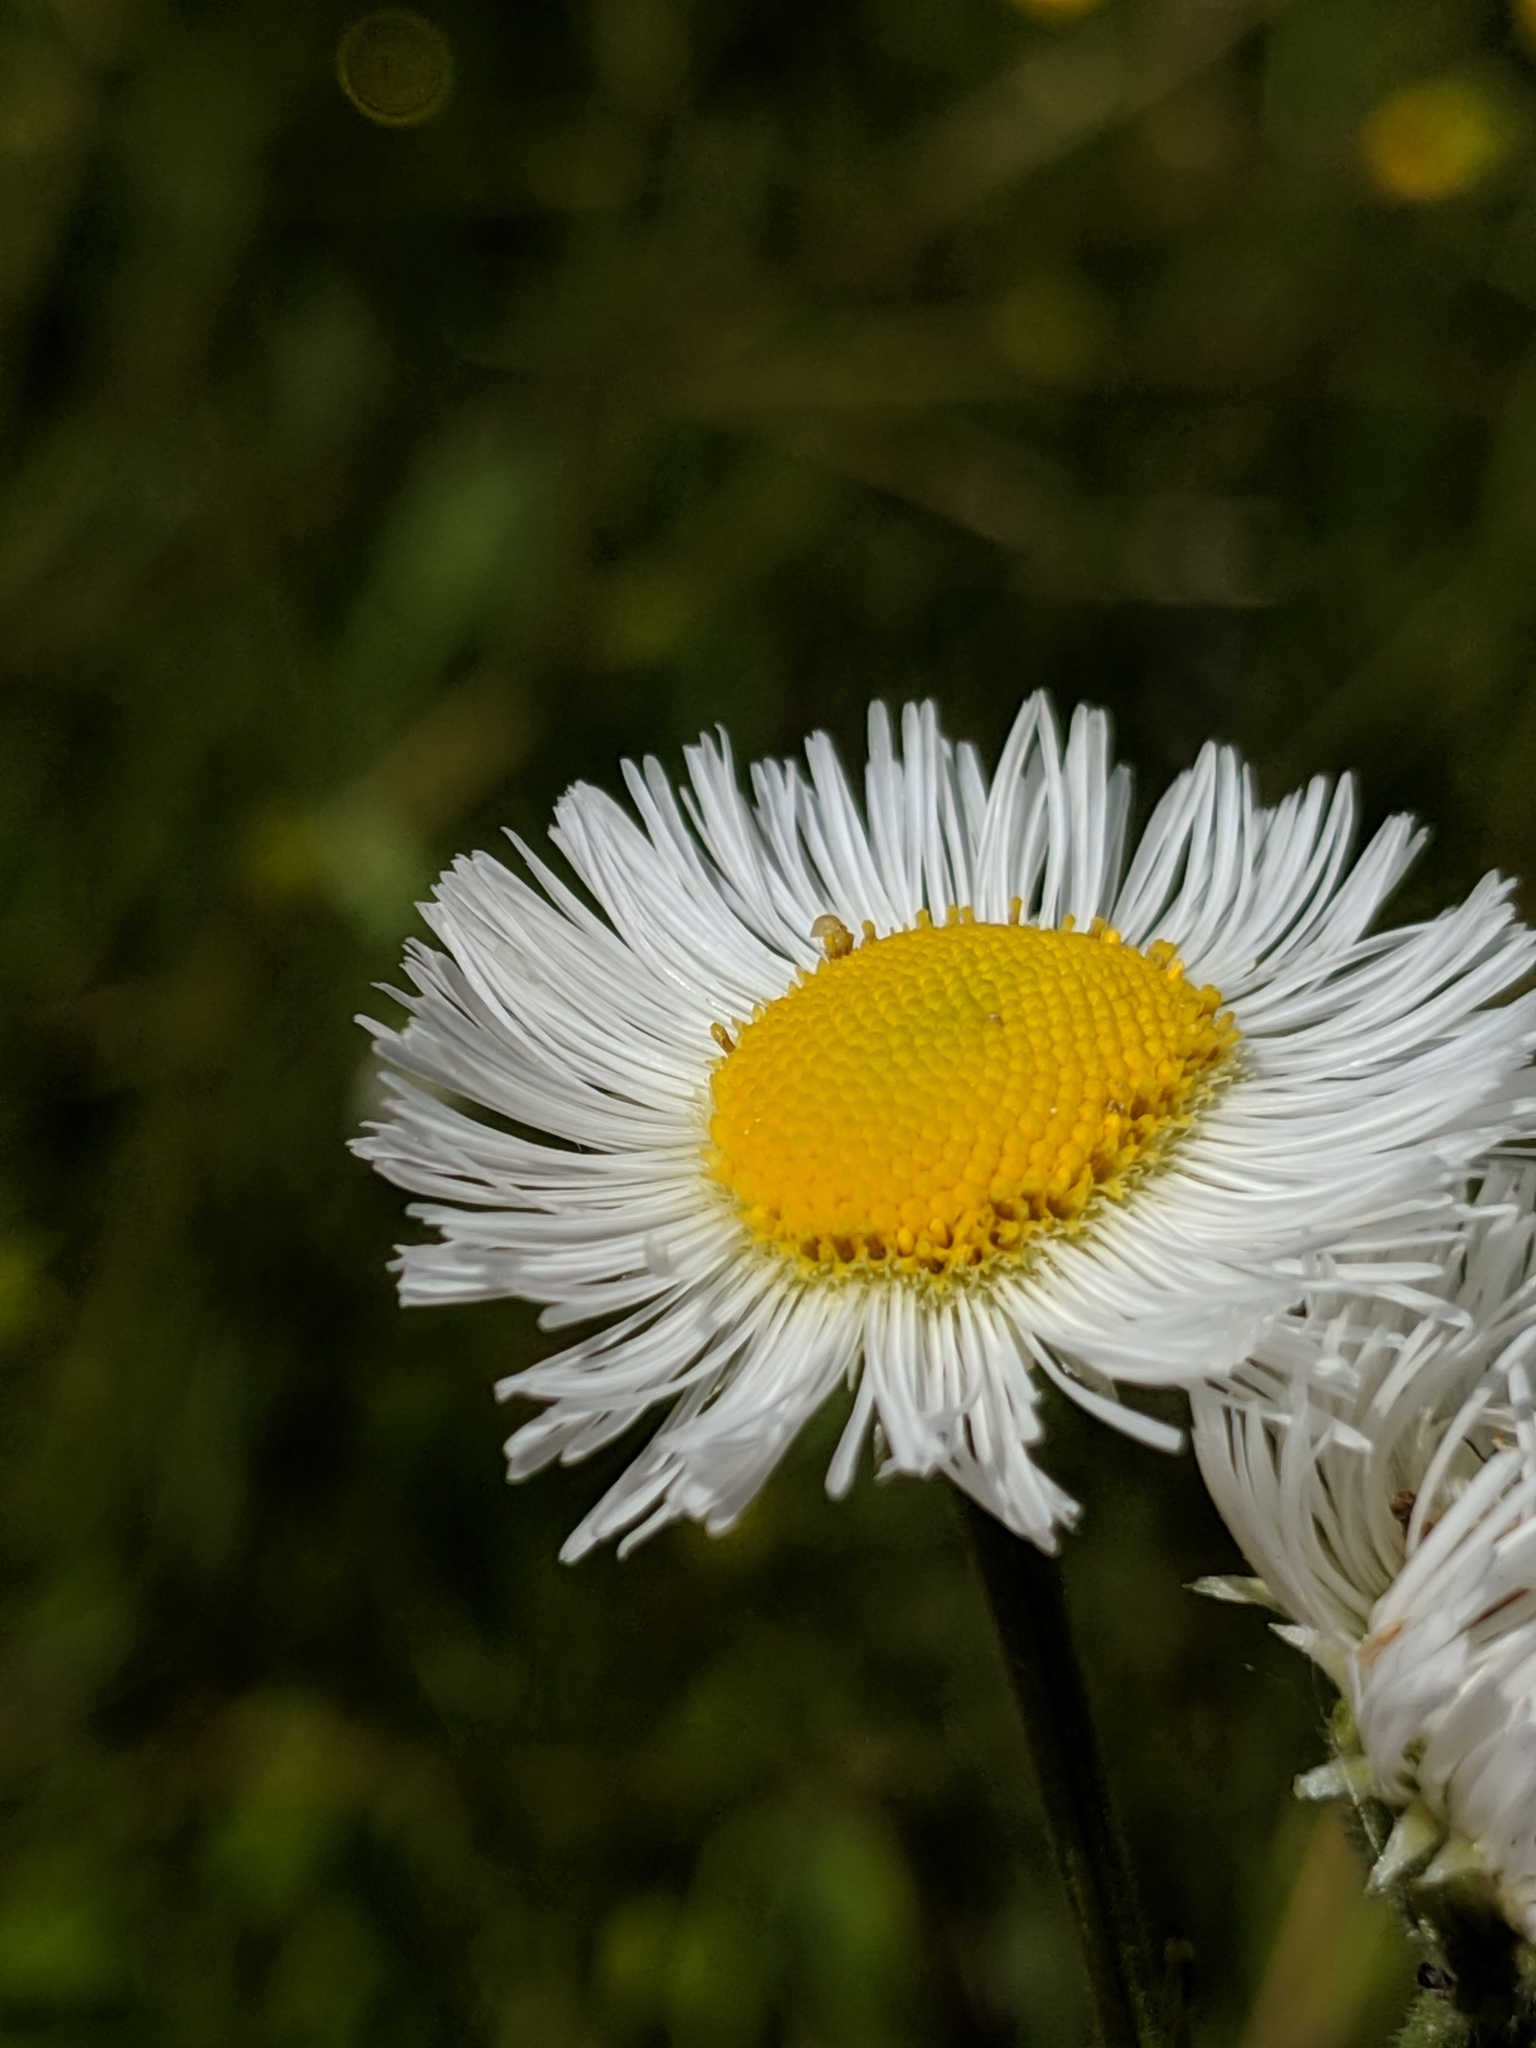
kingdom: Plantae
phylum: Tracheophyta
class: Magnoliopsida
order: Asterales
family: Asteraceae
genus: Erigeron
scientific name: Erigeron philadelphicus
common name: Robin's-plantain
